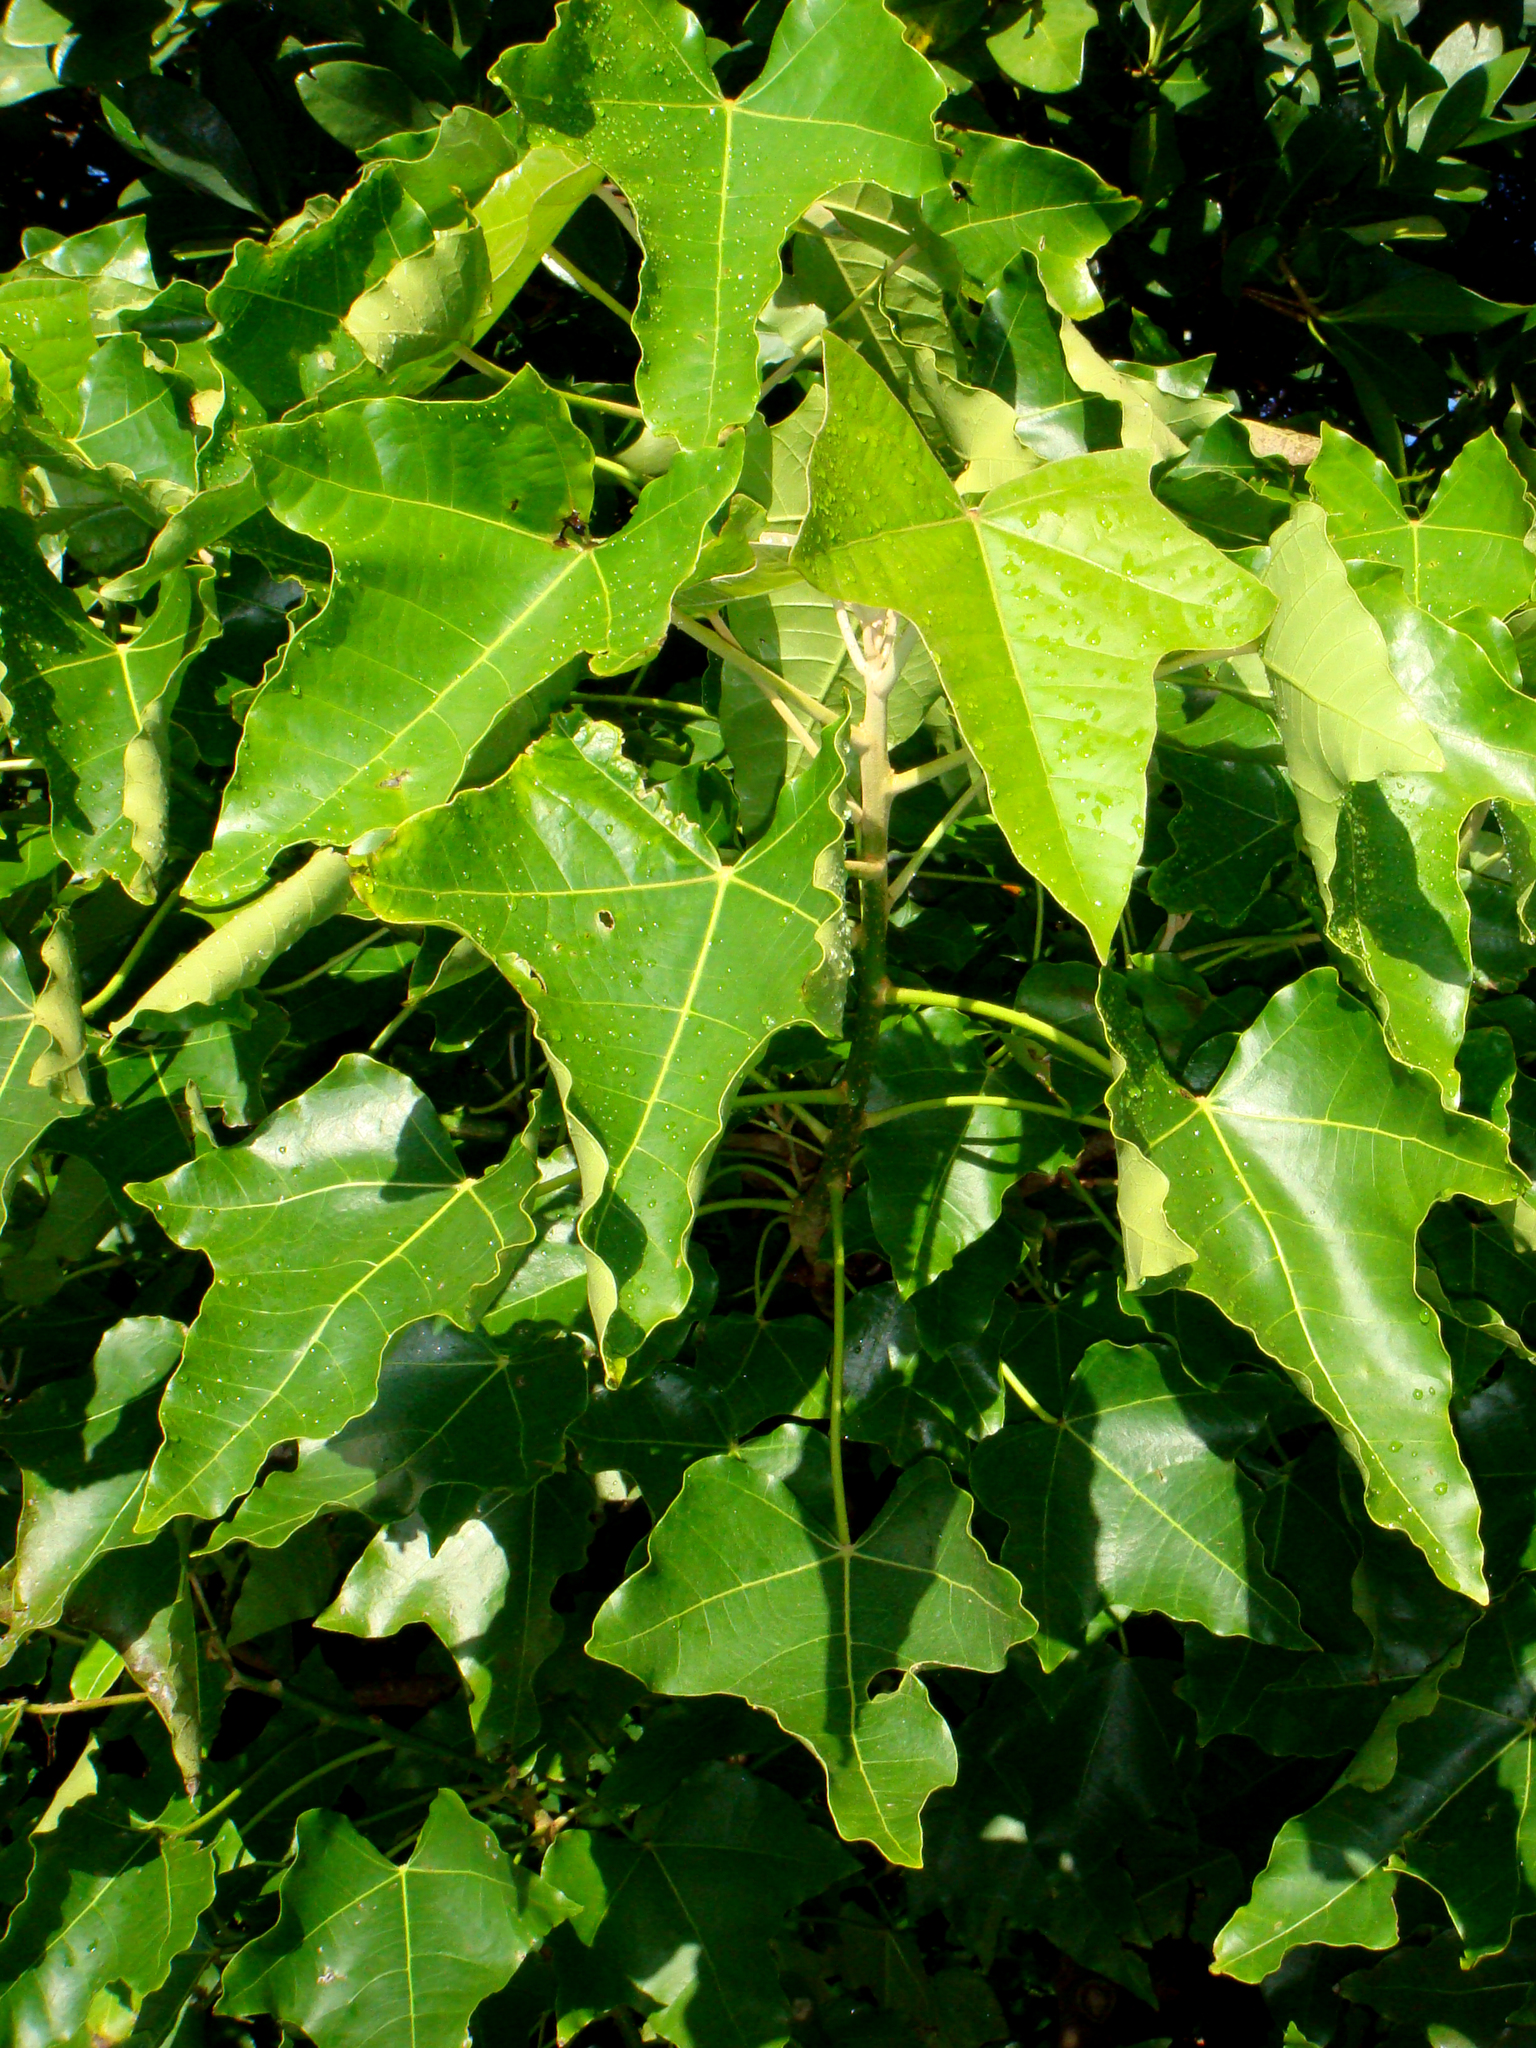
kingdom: Plantae
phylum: Tracheophyta
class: Magnoliopsida
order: Malpighiales
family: Euphorbiaceae
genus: Aleurites
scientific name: Aleurites moluccanus
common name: Candlenut tree
